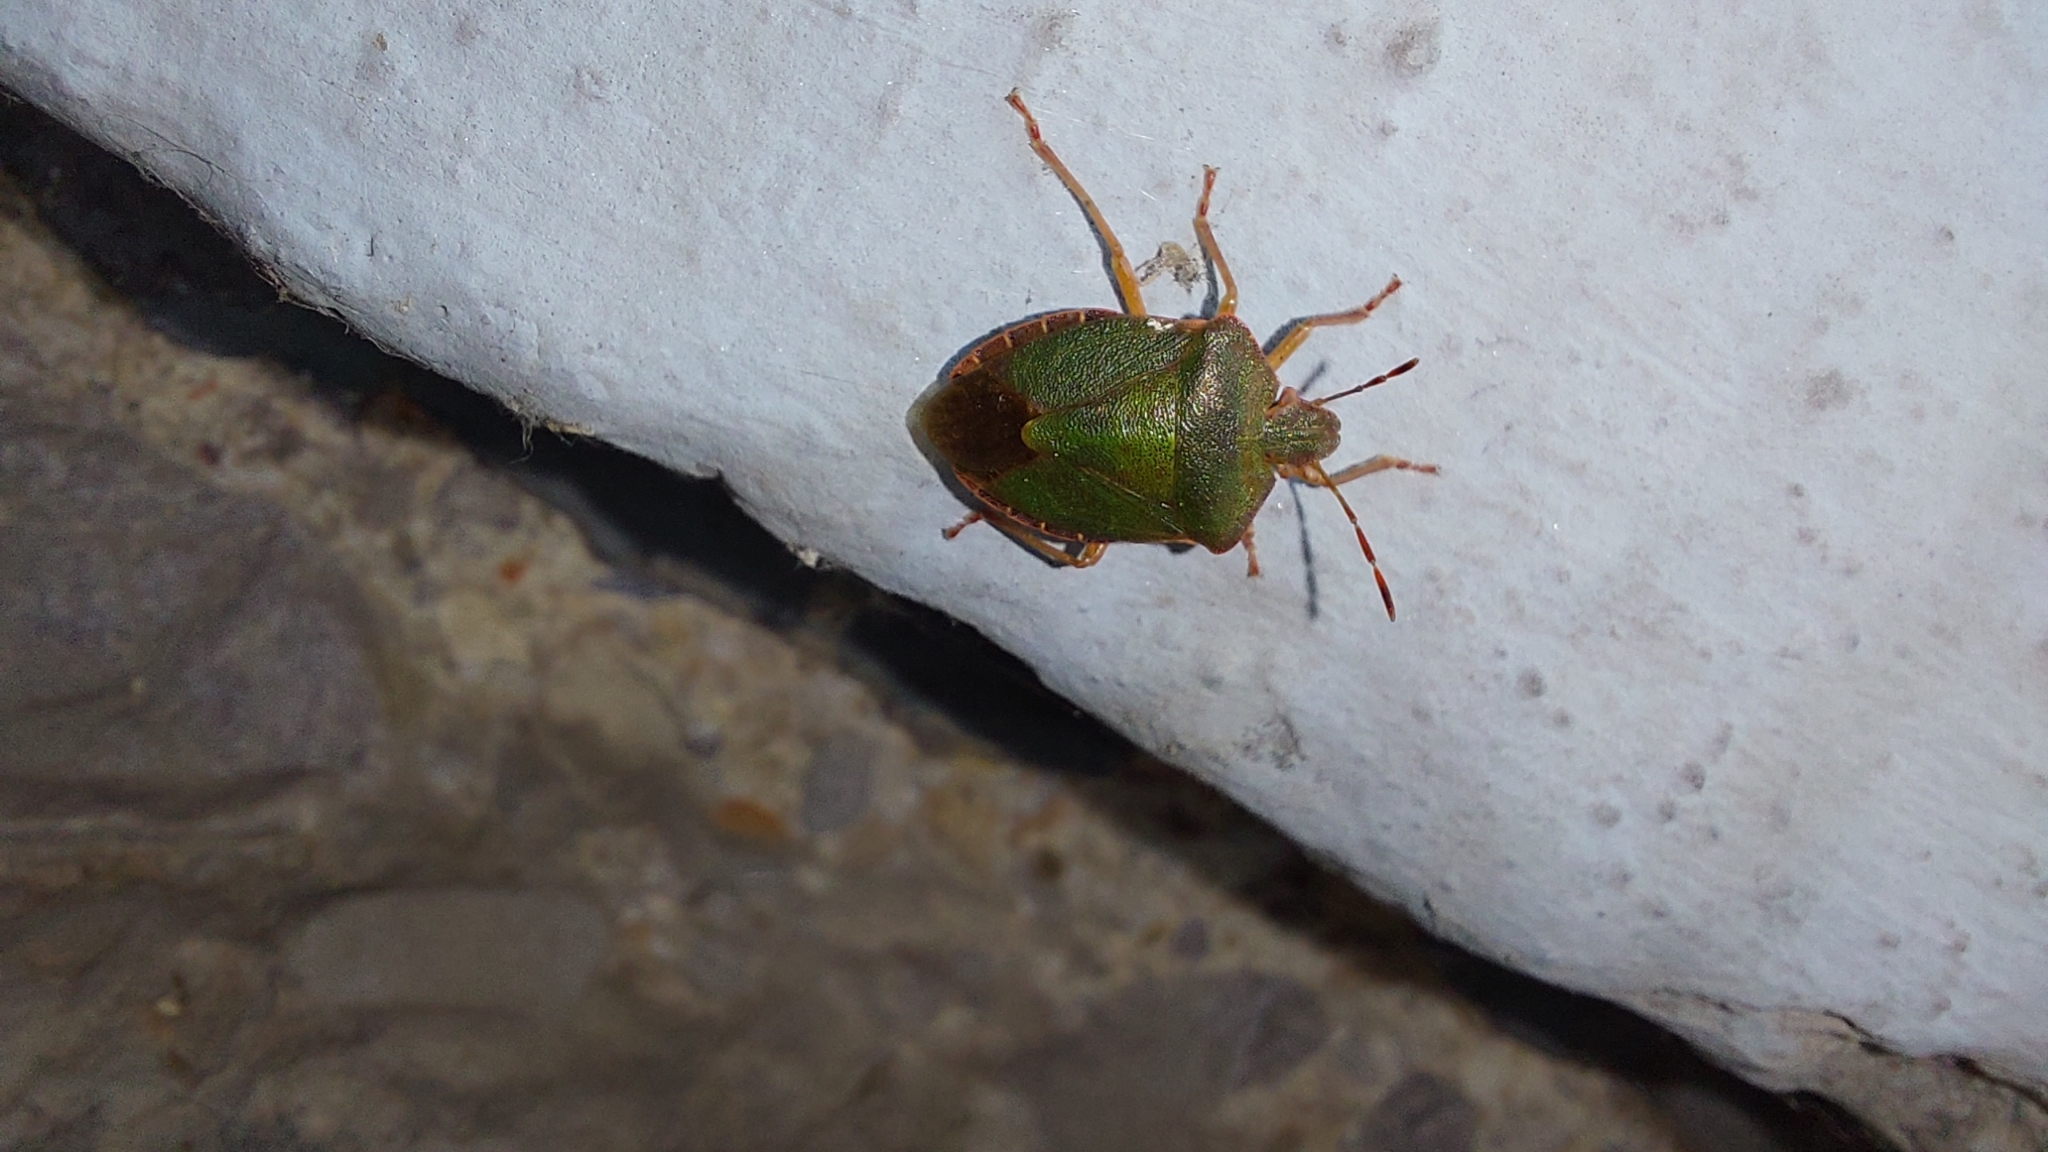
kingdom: Animalia
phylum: Arthropoda
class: Insecta
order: Hemiptera
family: Pentatomidae
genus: Palomena
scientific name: Palomena prasina
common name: Green shieldbug
